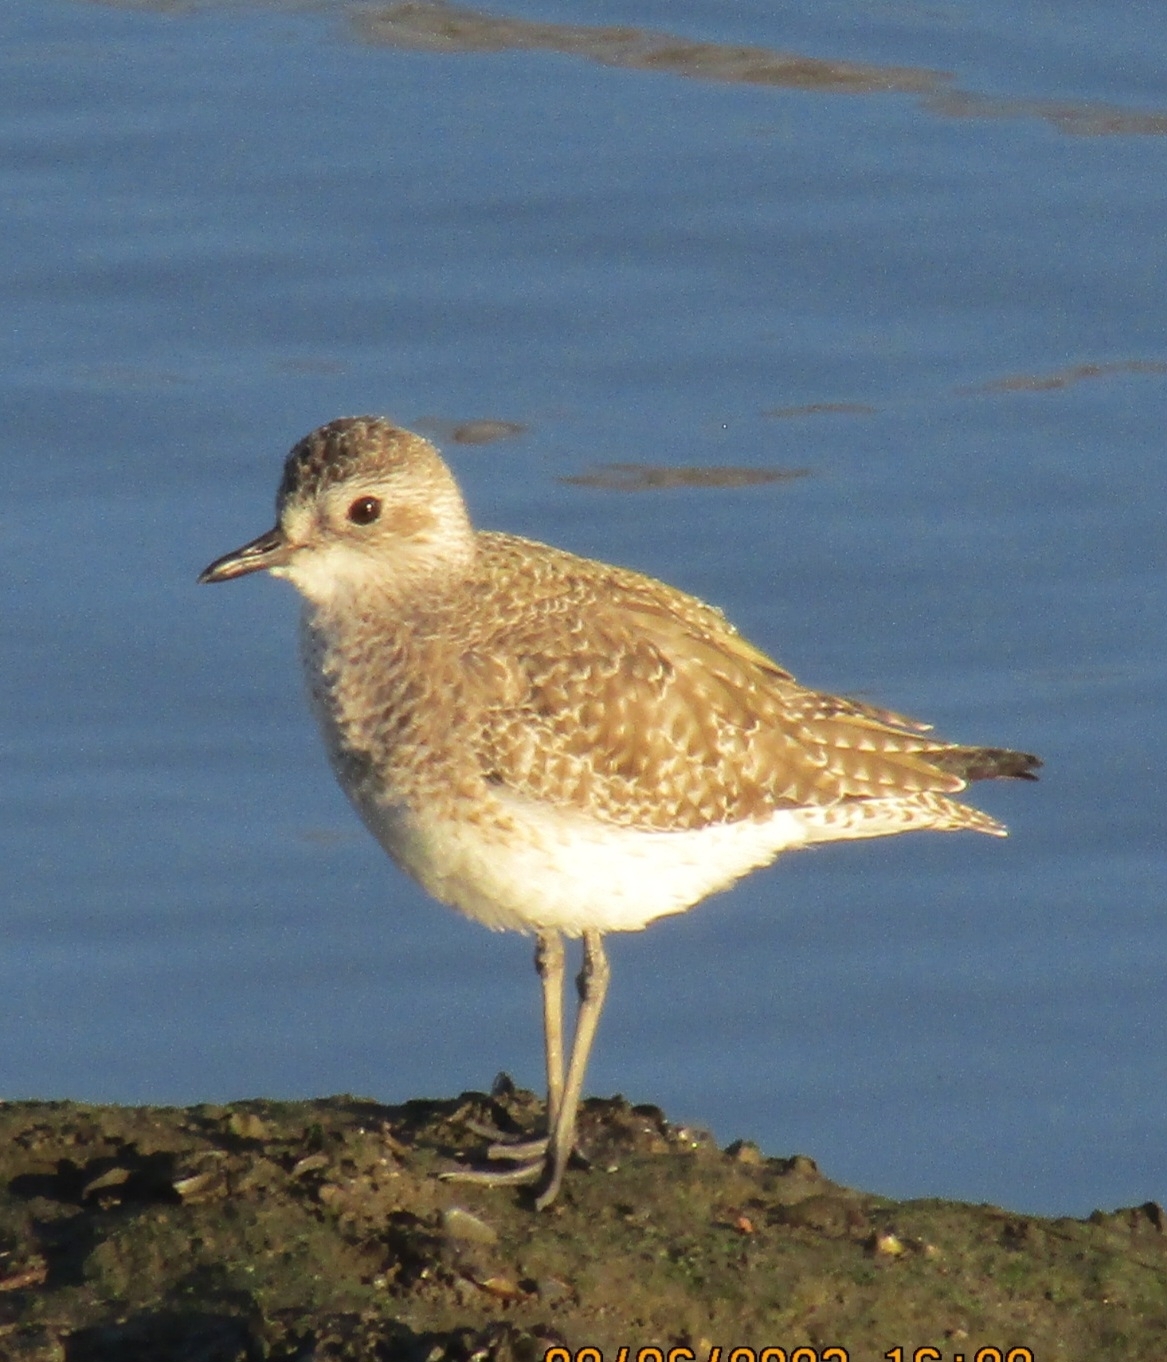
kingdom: Animalia
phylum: Chordata
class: Aves
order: Charadriiformes
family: Charadriidae
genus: Pluvialis
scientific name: Pluvialis squatarola
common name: Grey plover
